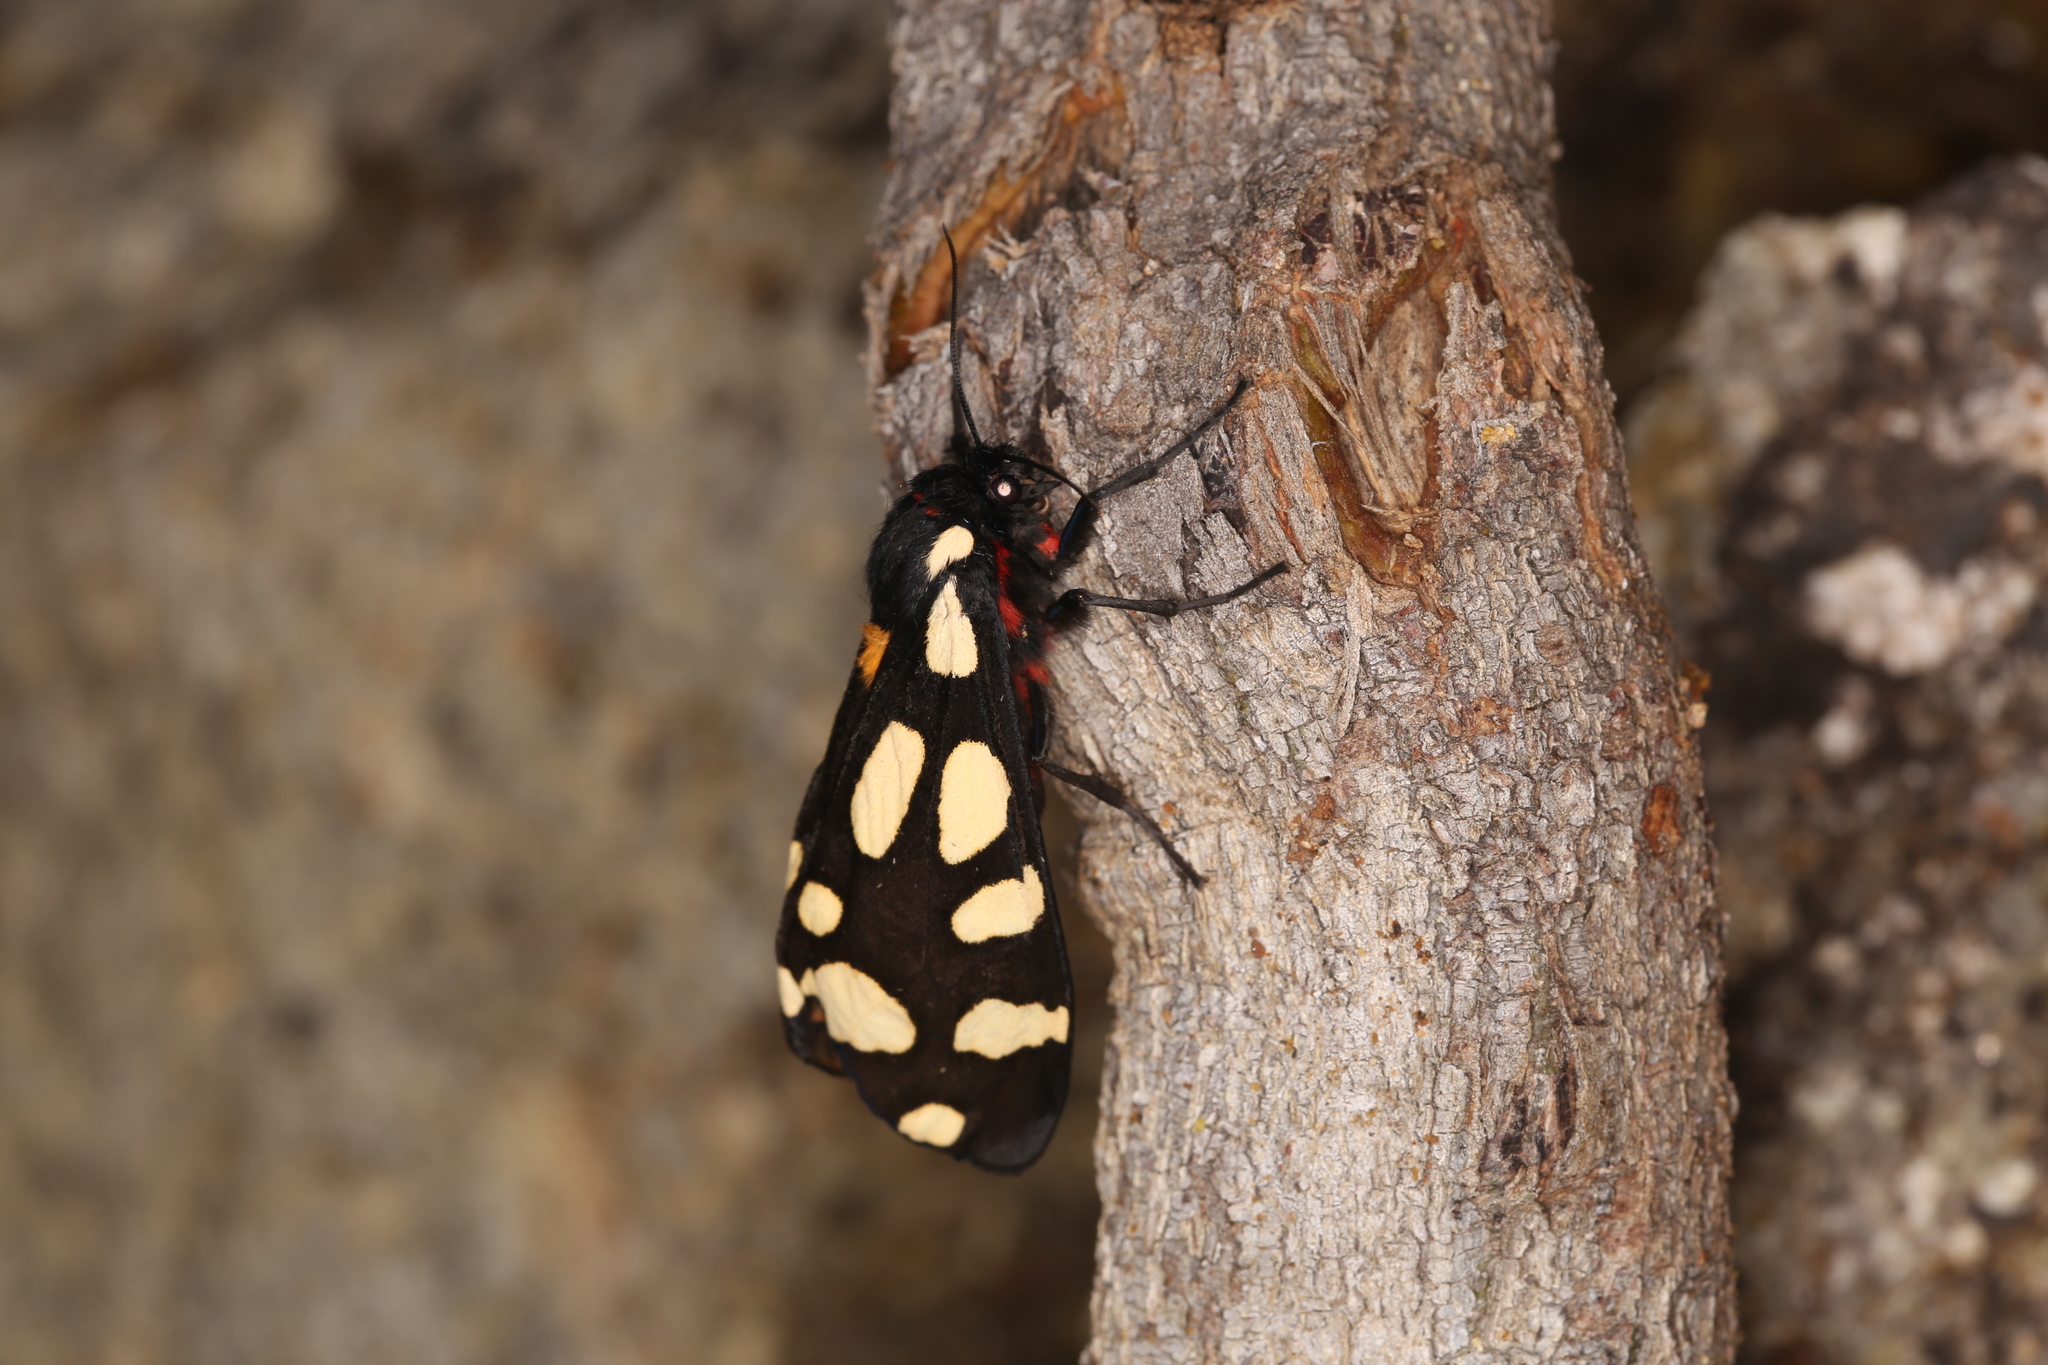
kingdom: Animalia
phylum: Arthropoda
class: Insecta
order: Lepidoptera
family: Erebidae
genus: Epicallia
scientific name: Epicallia villica
